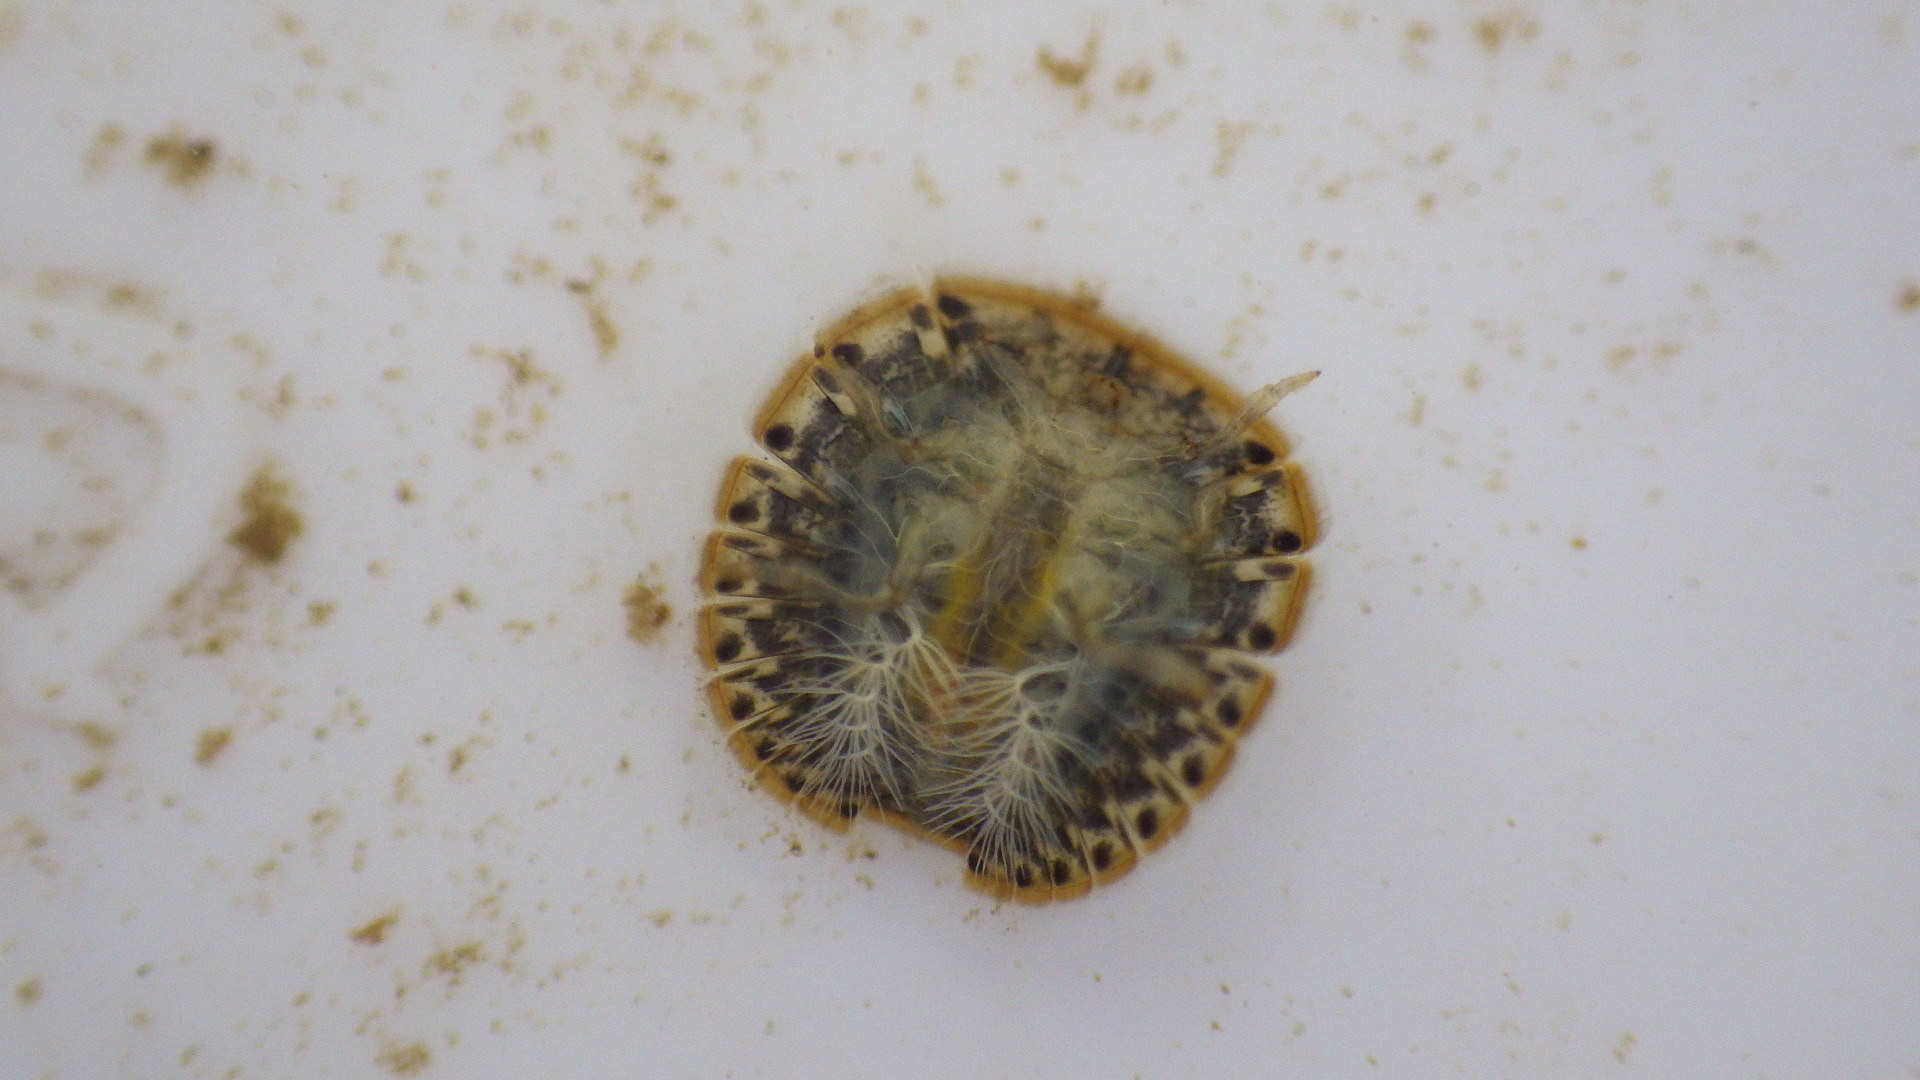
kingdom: Animalia
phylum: Arthropoda
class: Insecta
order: Coleoptera
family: Psephenidae
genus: Psephenus
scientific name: Psephenus herricki
